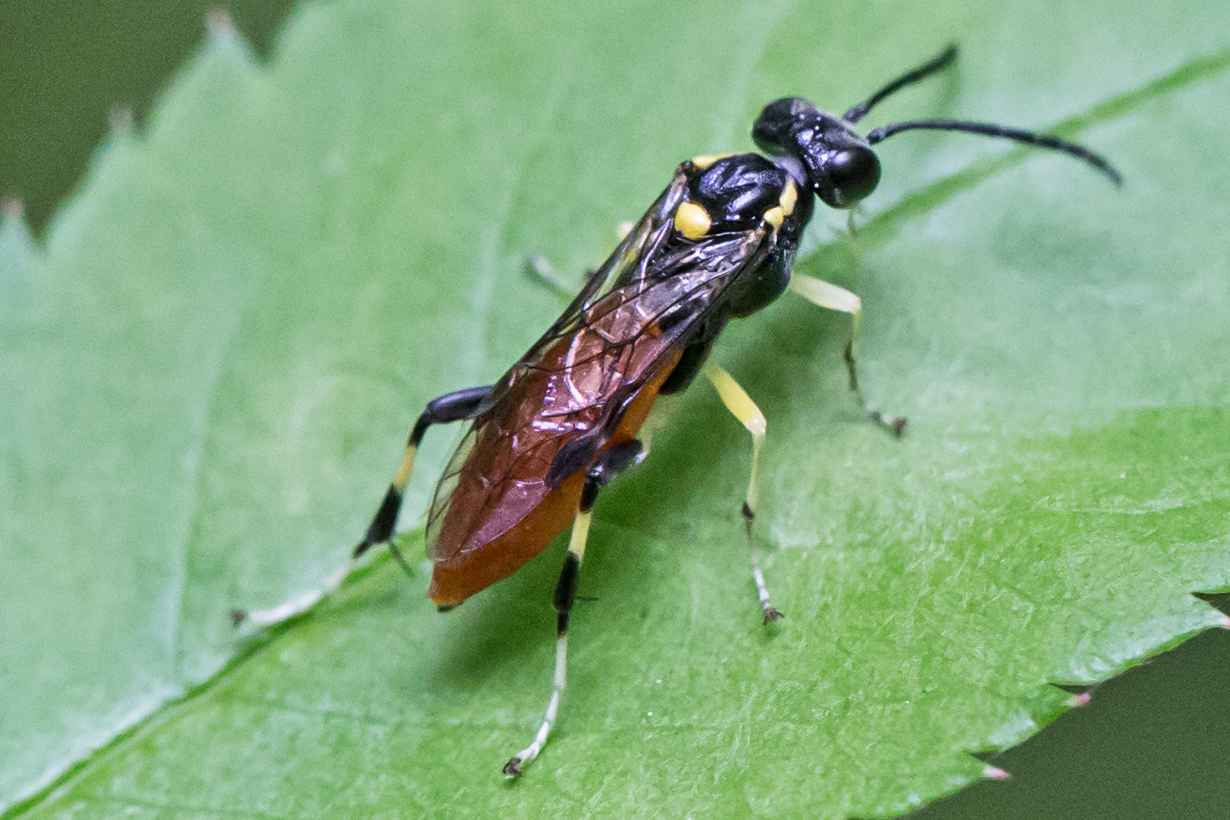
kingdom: Animalia
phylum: Arthropoda
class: Insecta
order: Hymenoptera
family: Tenthredinidae
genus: Macrophya
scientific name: Macrophya pulchella
